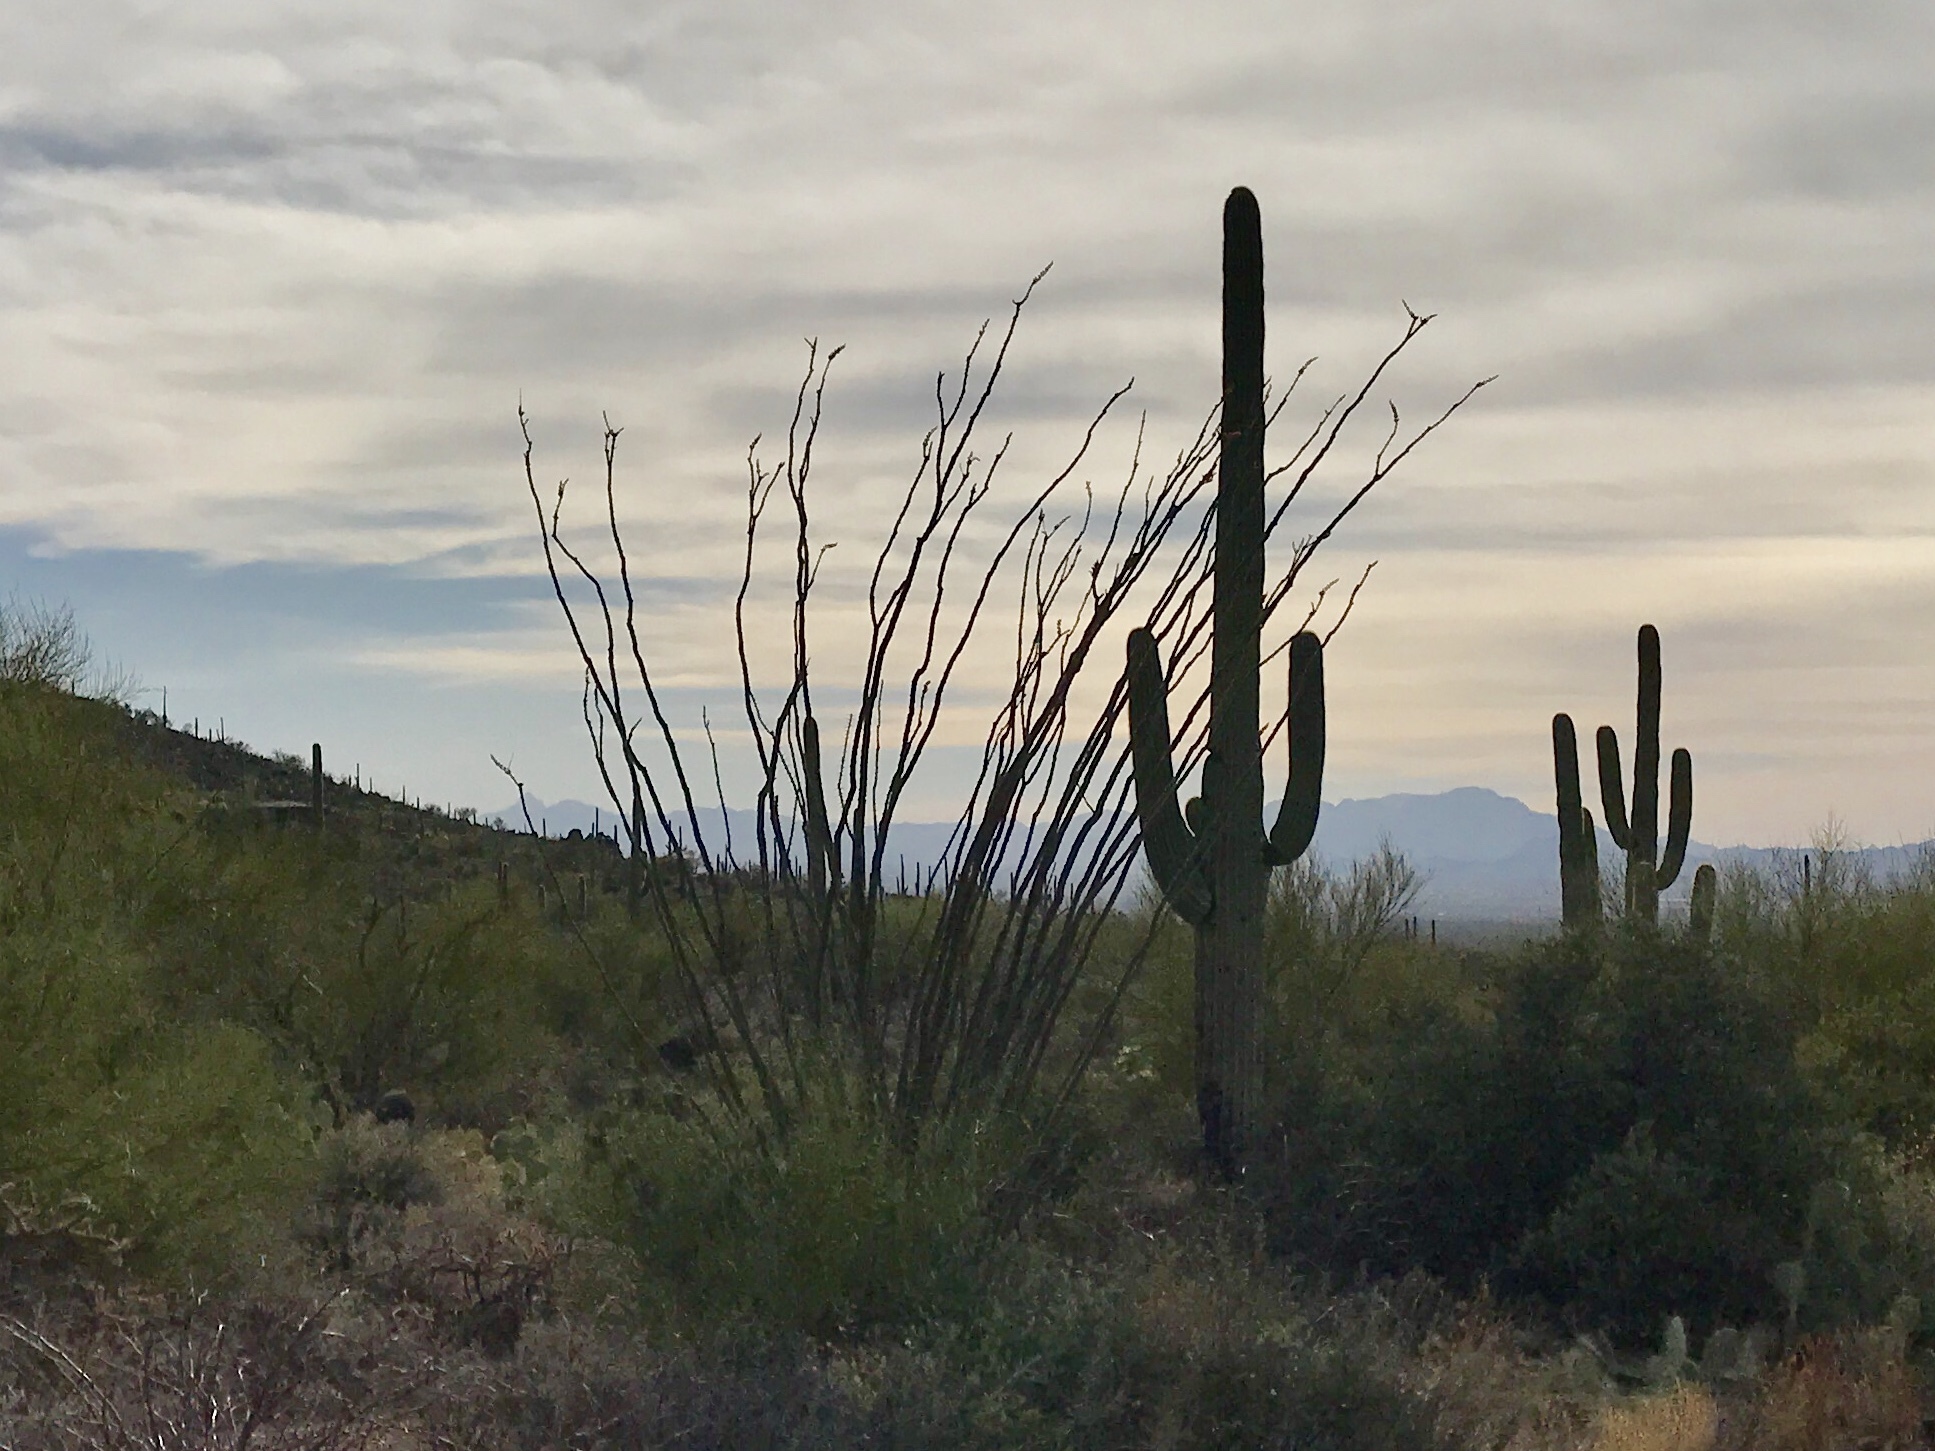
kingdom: Plantae
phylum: Tracheophyta
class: Magnoliopsida
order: Ericales
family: Fouquieriaceae
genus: Fouquieria
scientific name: Fouquieria splendens
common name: Vine-cactus
